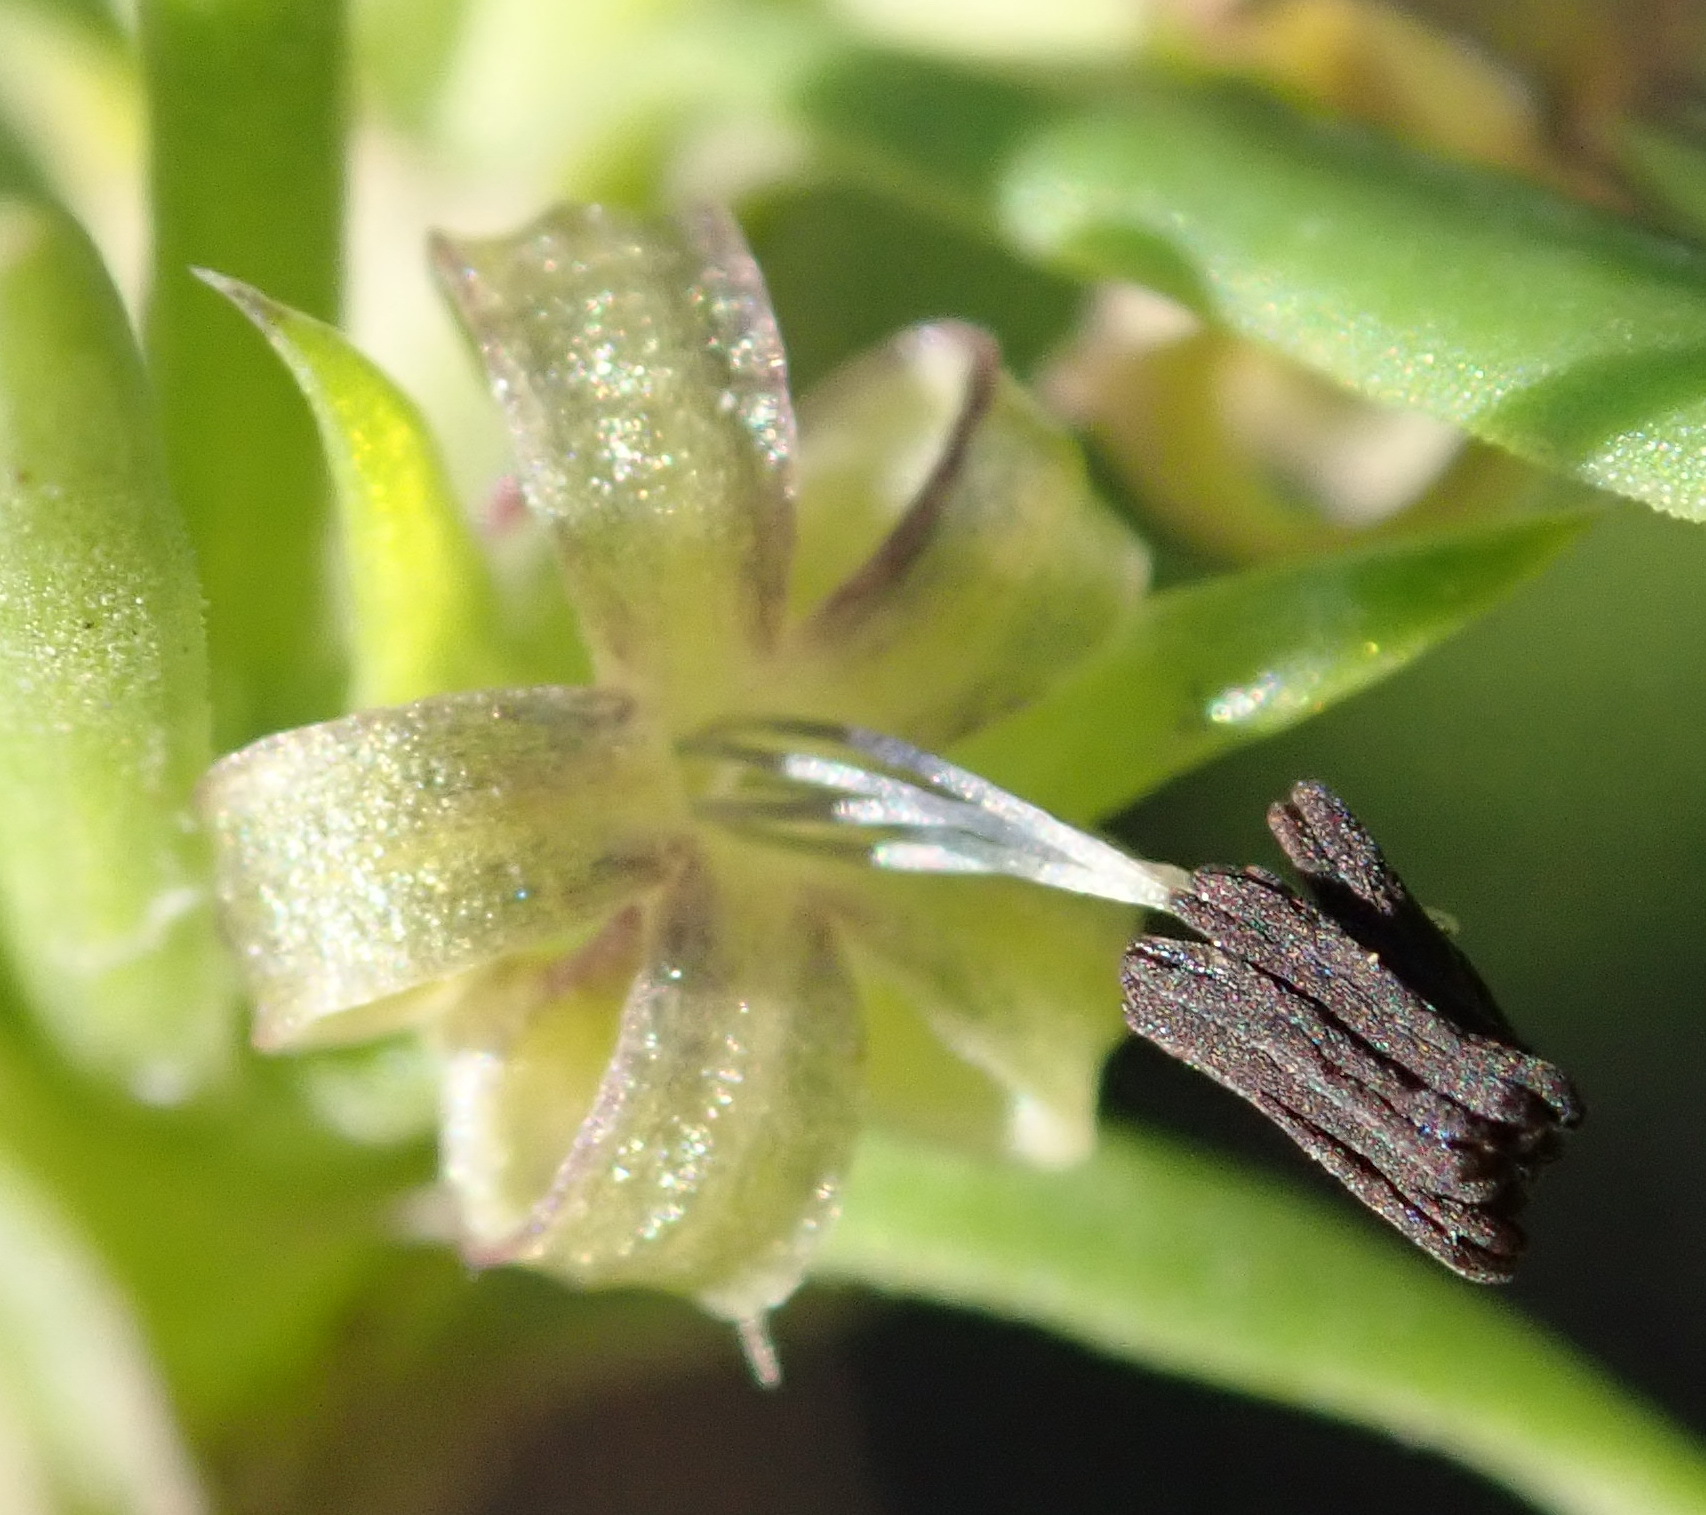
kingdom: Plantae
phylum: Tracheophyta
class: Magnoliopsida
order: Gentianales
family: Rubiaceae
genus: Carpacoce
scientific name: Carpacoce spermacocea
